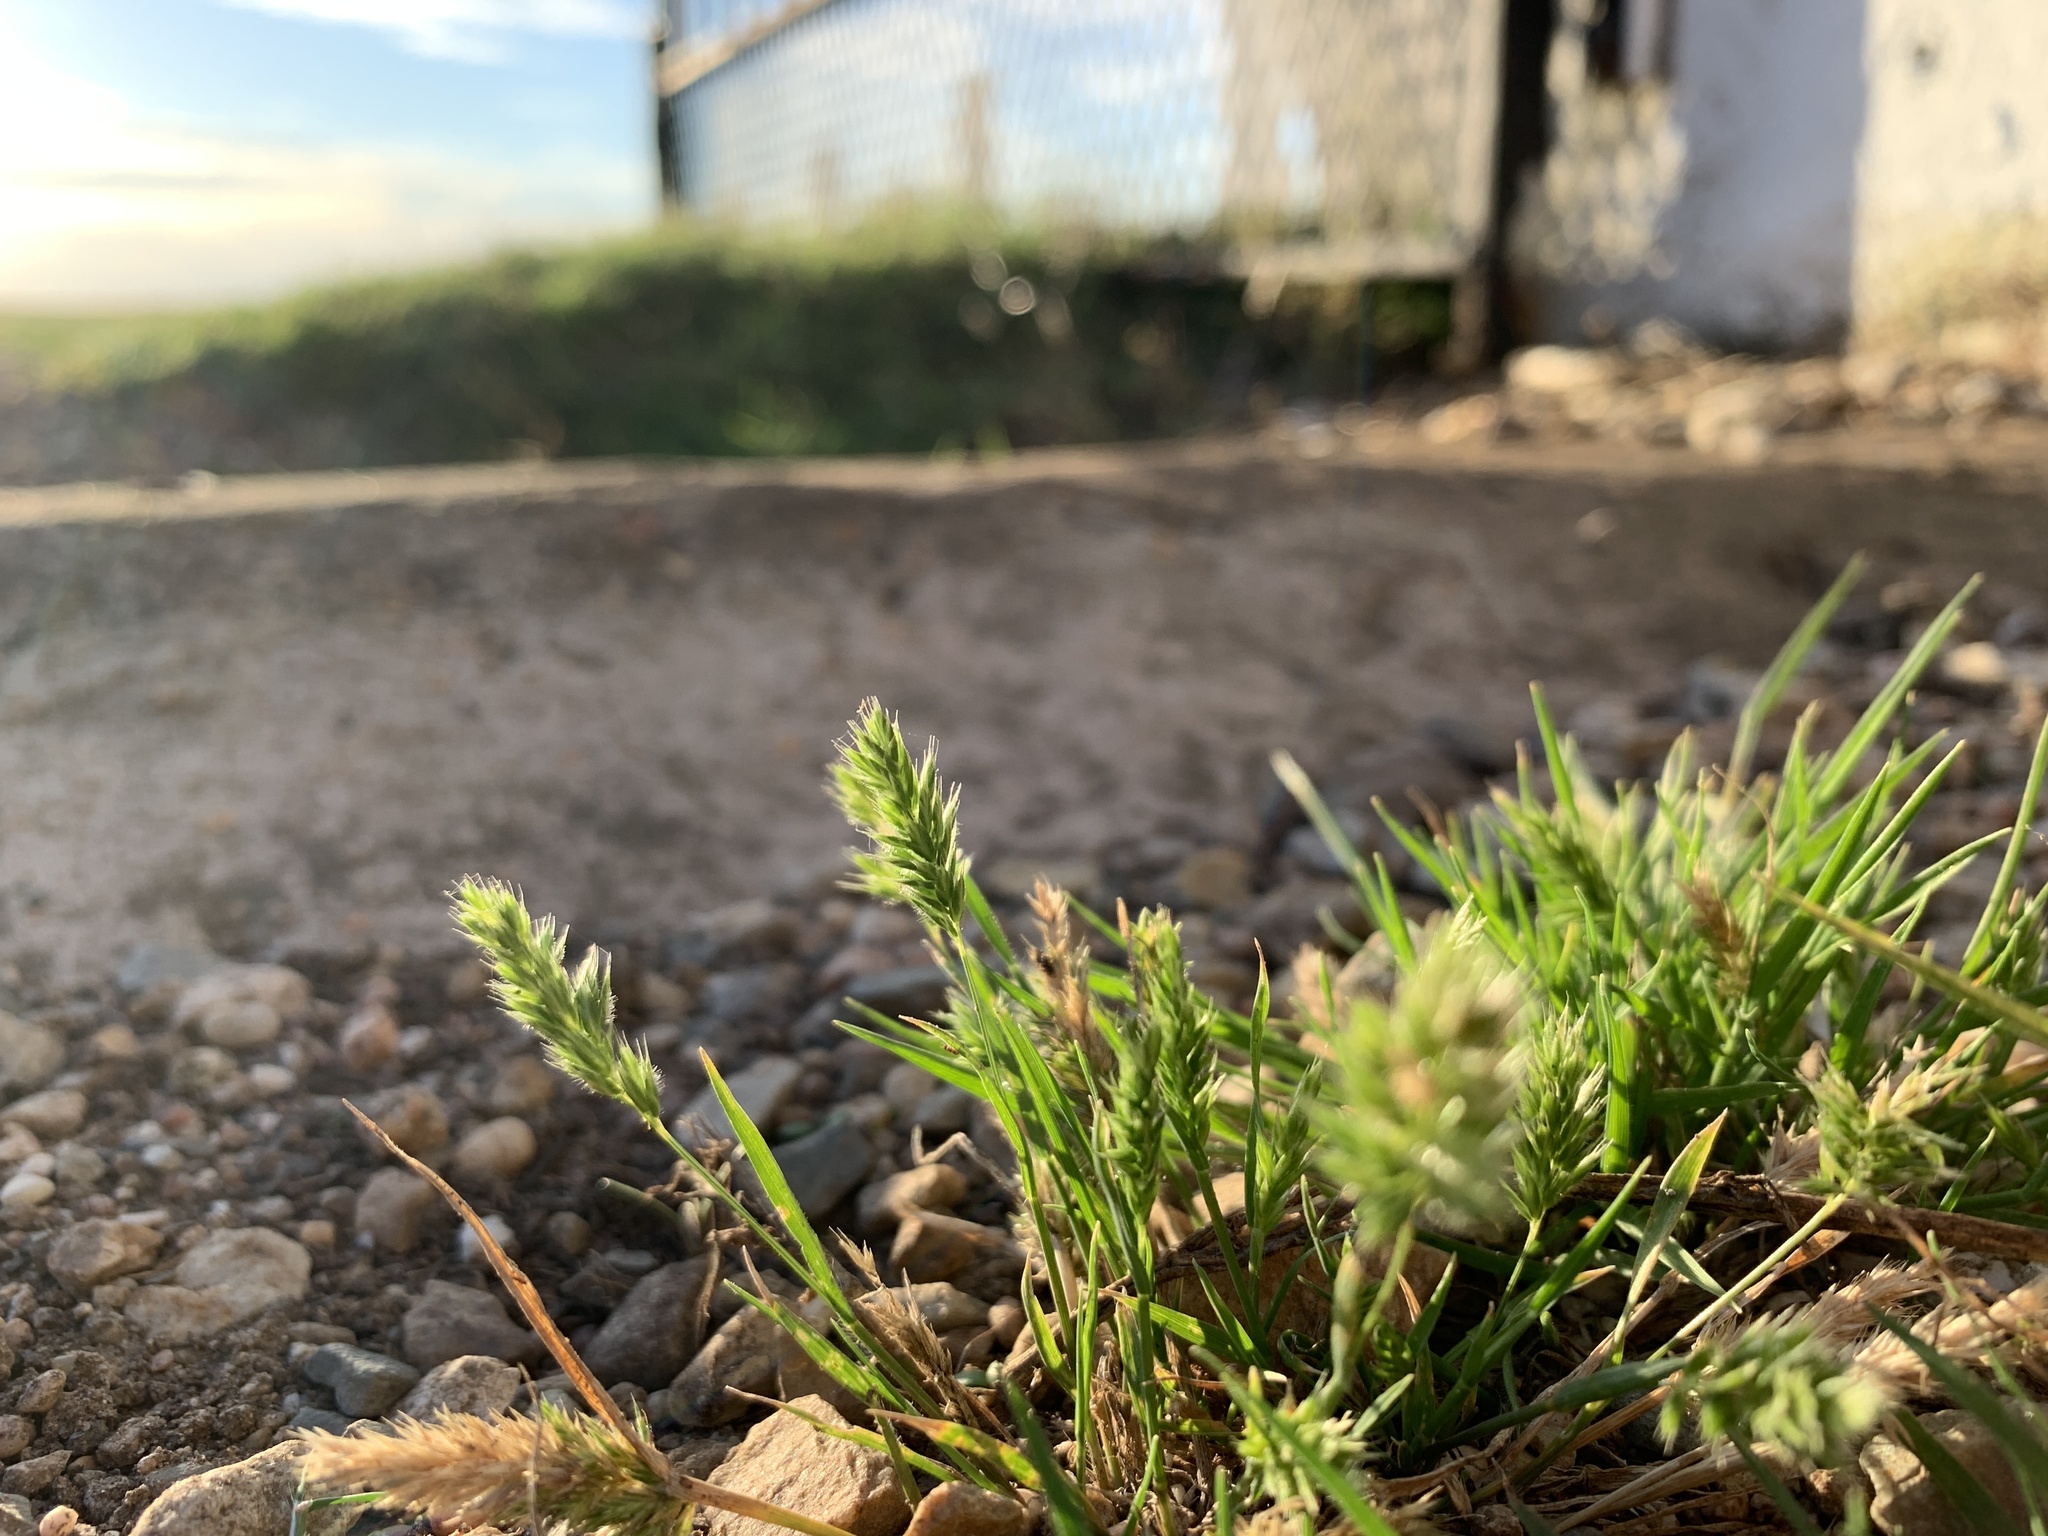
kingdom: Plantae
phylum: Tracheophyta
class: Liliopsida
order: Poales
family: Poaceae
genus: Rostraria
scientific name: Rostraria cristata
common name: Mediterranean hair-grass
